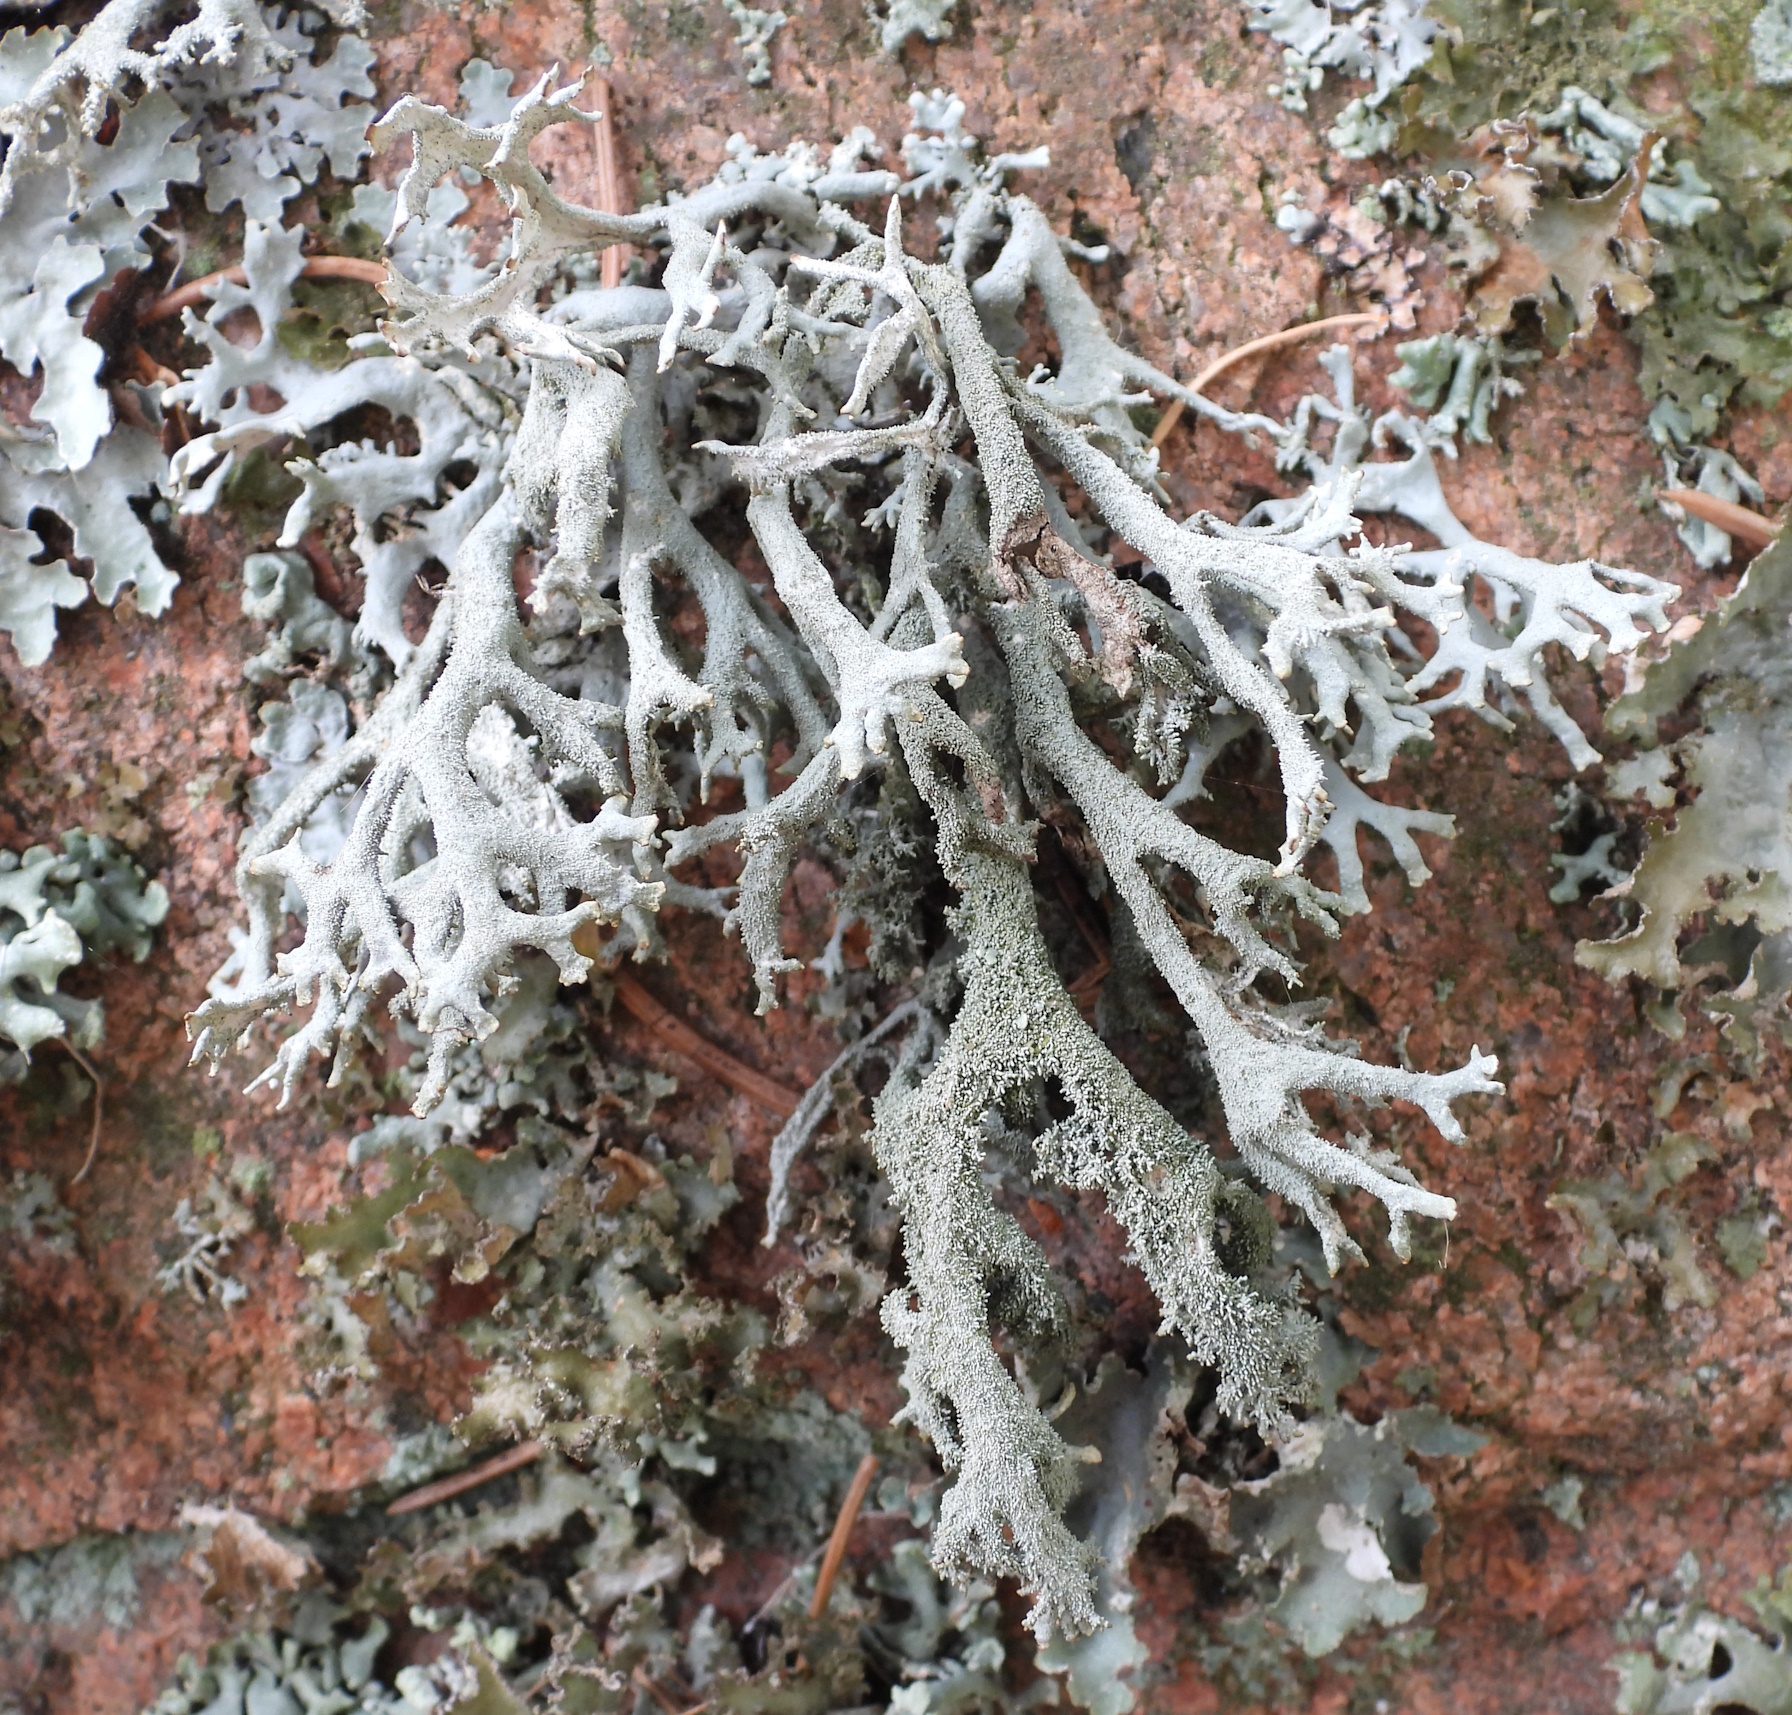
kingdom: Fungi
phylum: Ascomycota
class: Lecanoromycetes
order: Lecanorales
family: Parmeliaceae
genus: Pseudevernia
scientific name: Pseudevernia furfuracea
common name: Tree moss
